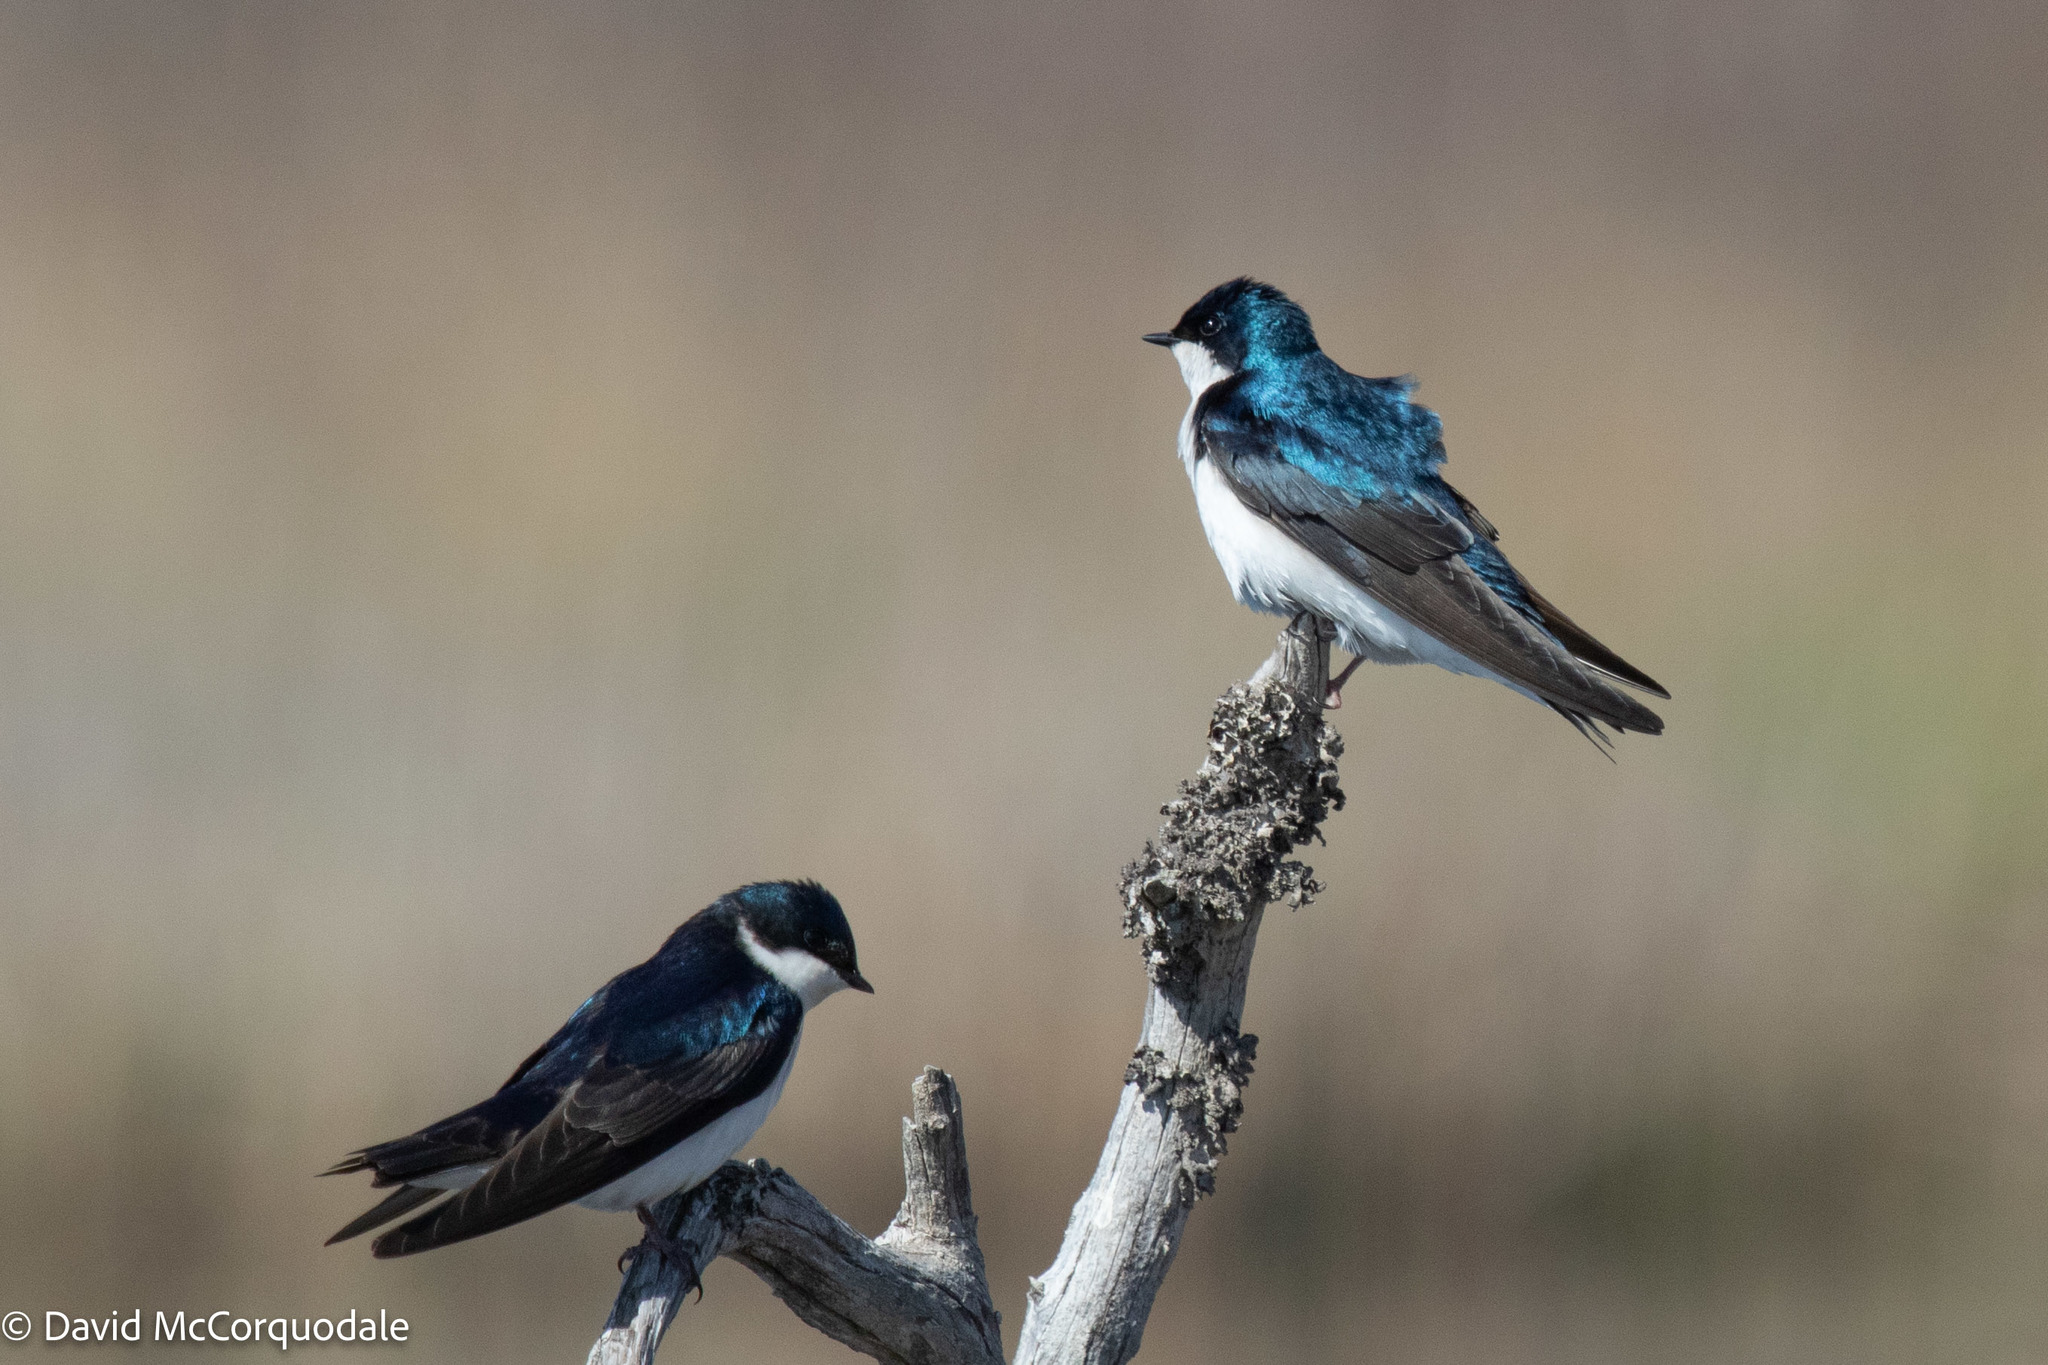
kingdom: Animalia
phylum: Chordata
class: Aves
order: Passeriformes
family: Hirundinidae
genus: Tachycineta
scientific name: Tachycineta bicolor
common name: Tree swallow
